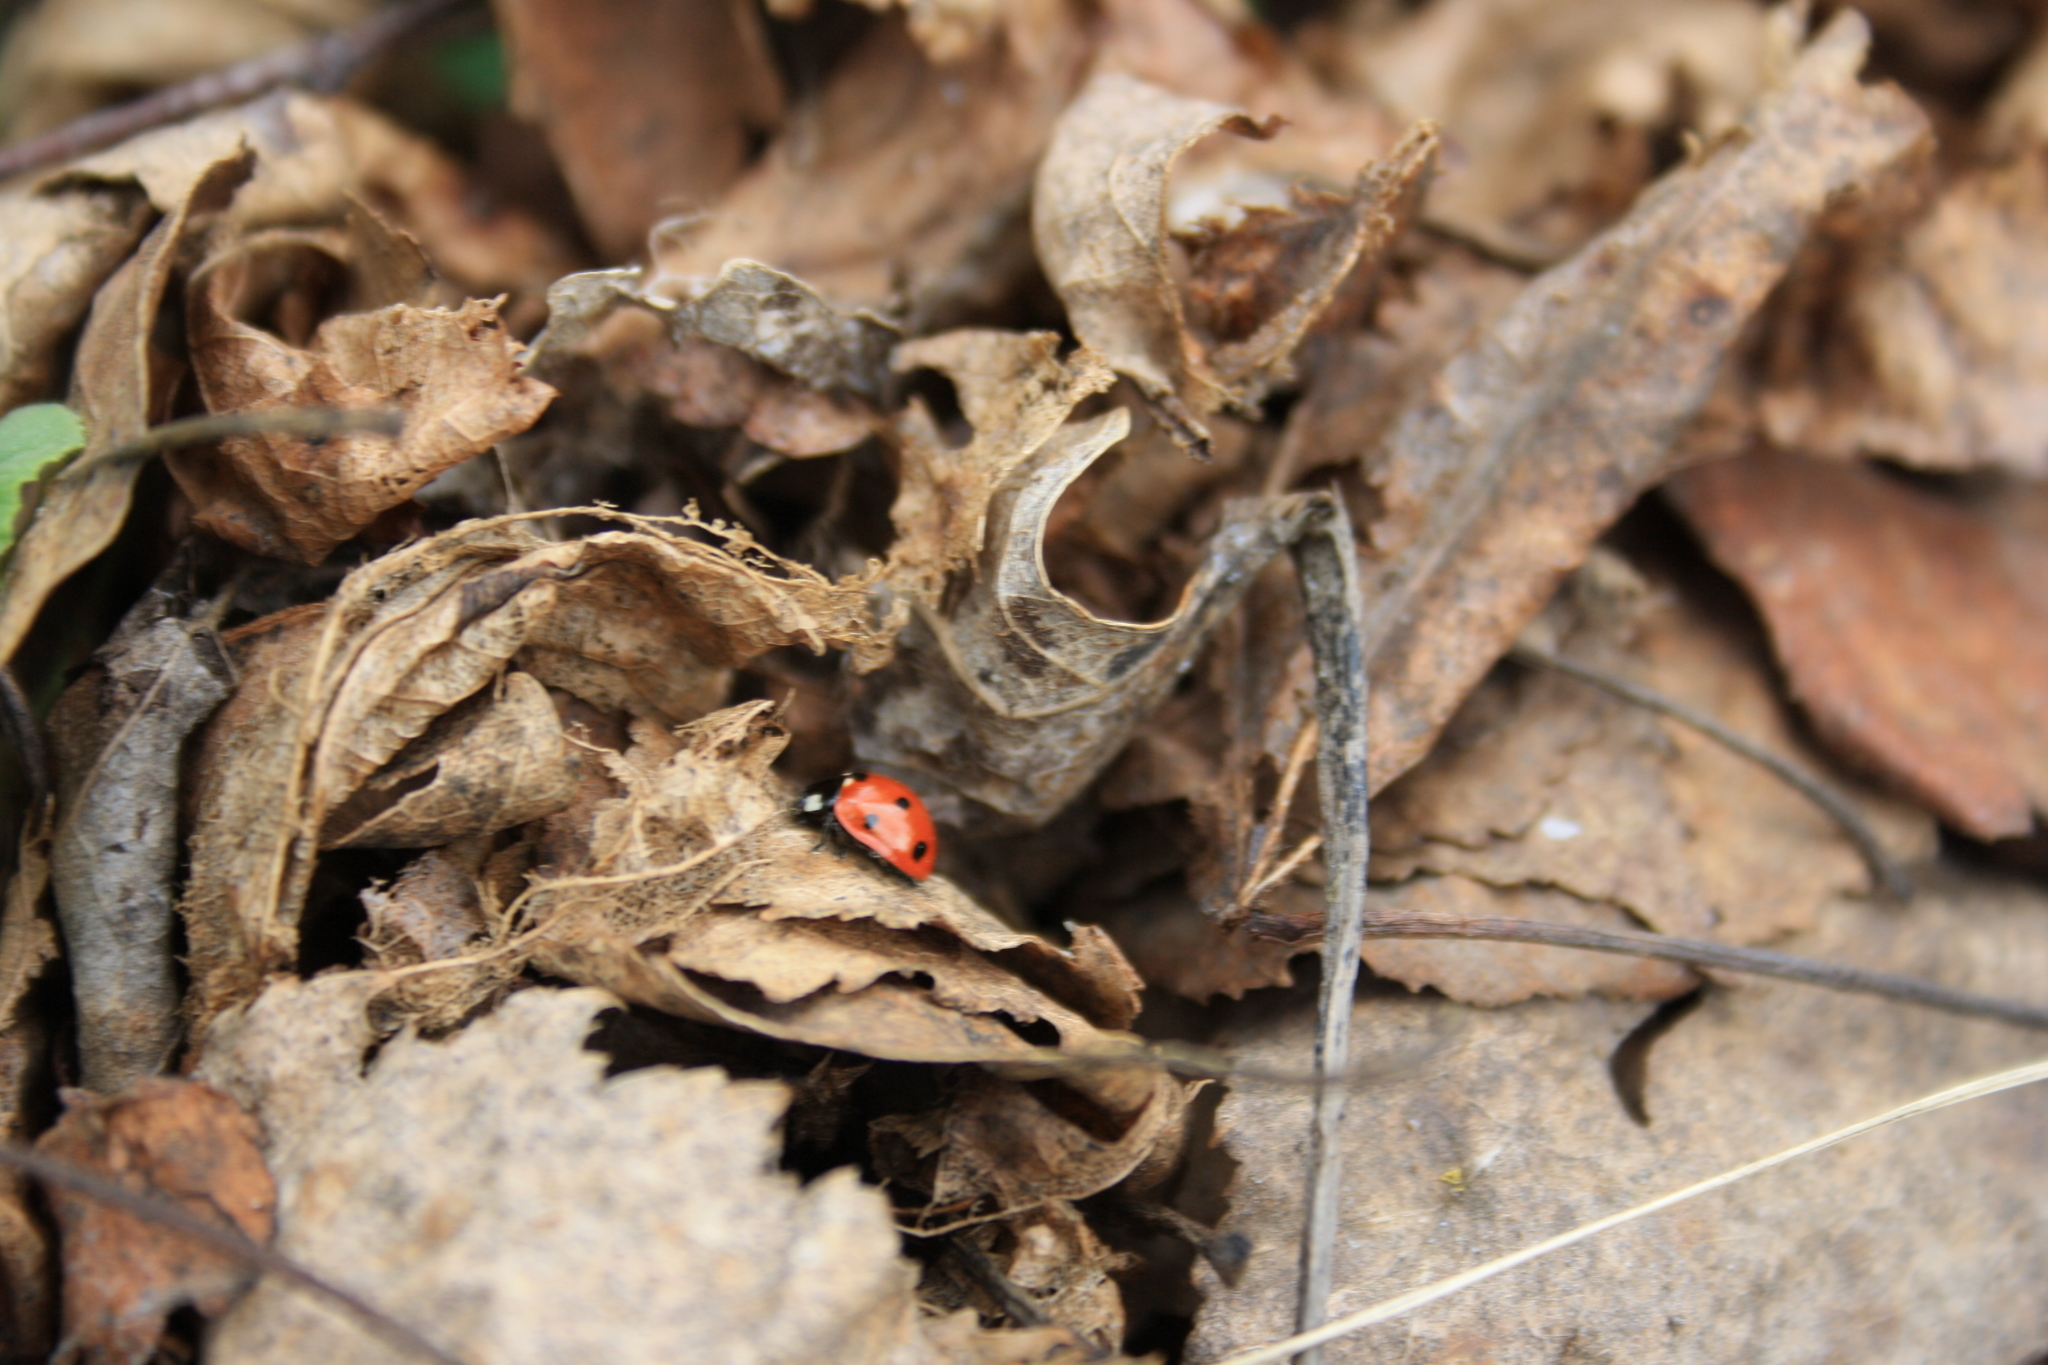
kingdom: Animalia
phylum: Arthropoda
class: Insecta
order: Coleoptera
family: Coccinellidae
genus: Coccinella
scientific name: Coccinella septempunctata
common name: Sevenspotted lady beetle
